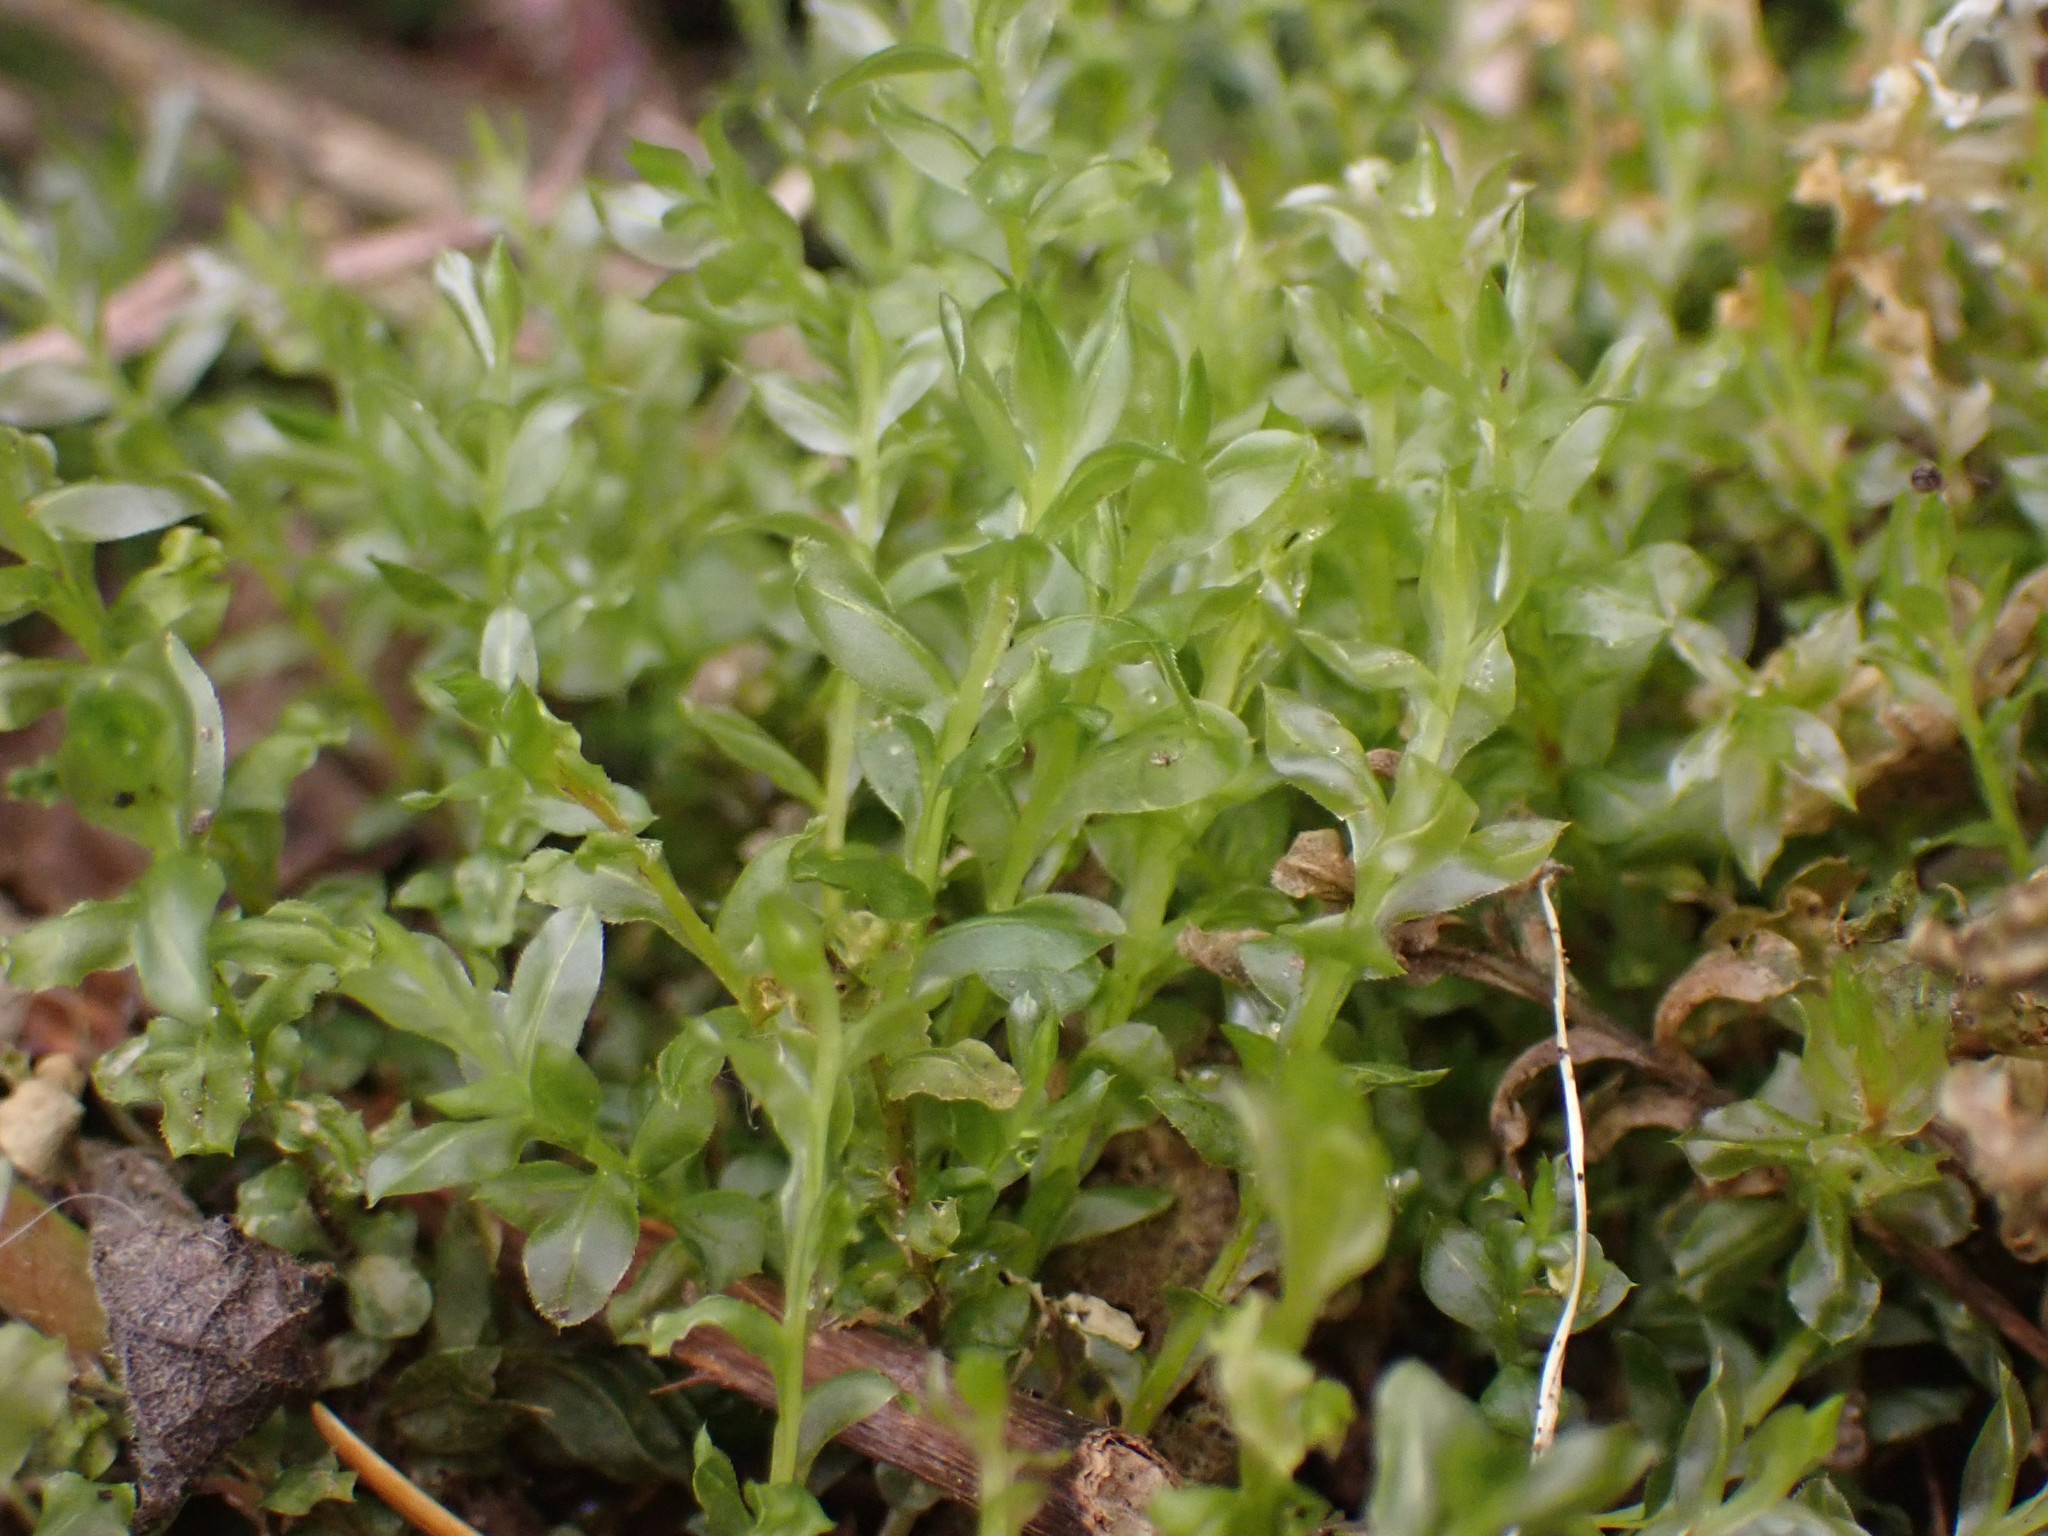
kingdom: Plantae
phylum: Bryophyta
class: Bryopsida
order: Bryales
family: Mniaceae
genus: Plagiomnium
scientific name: Plagiomnium insigne
